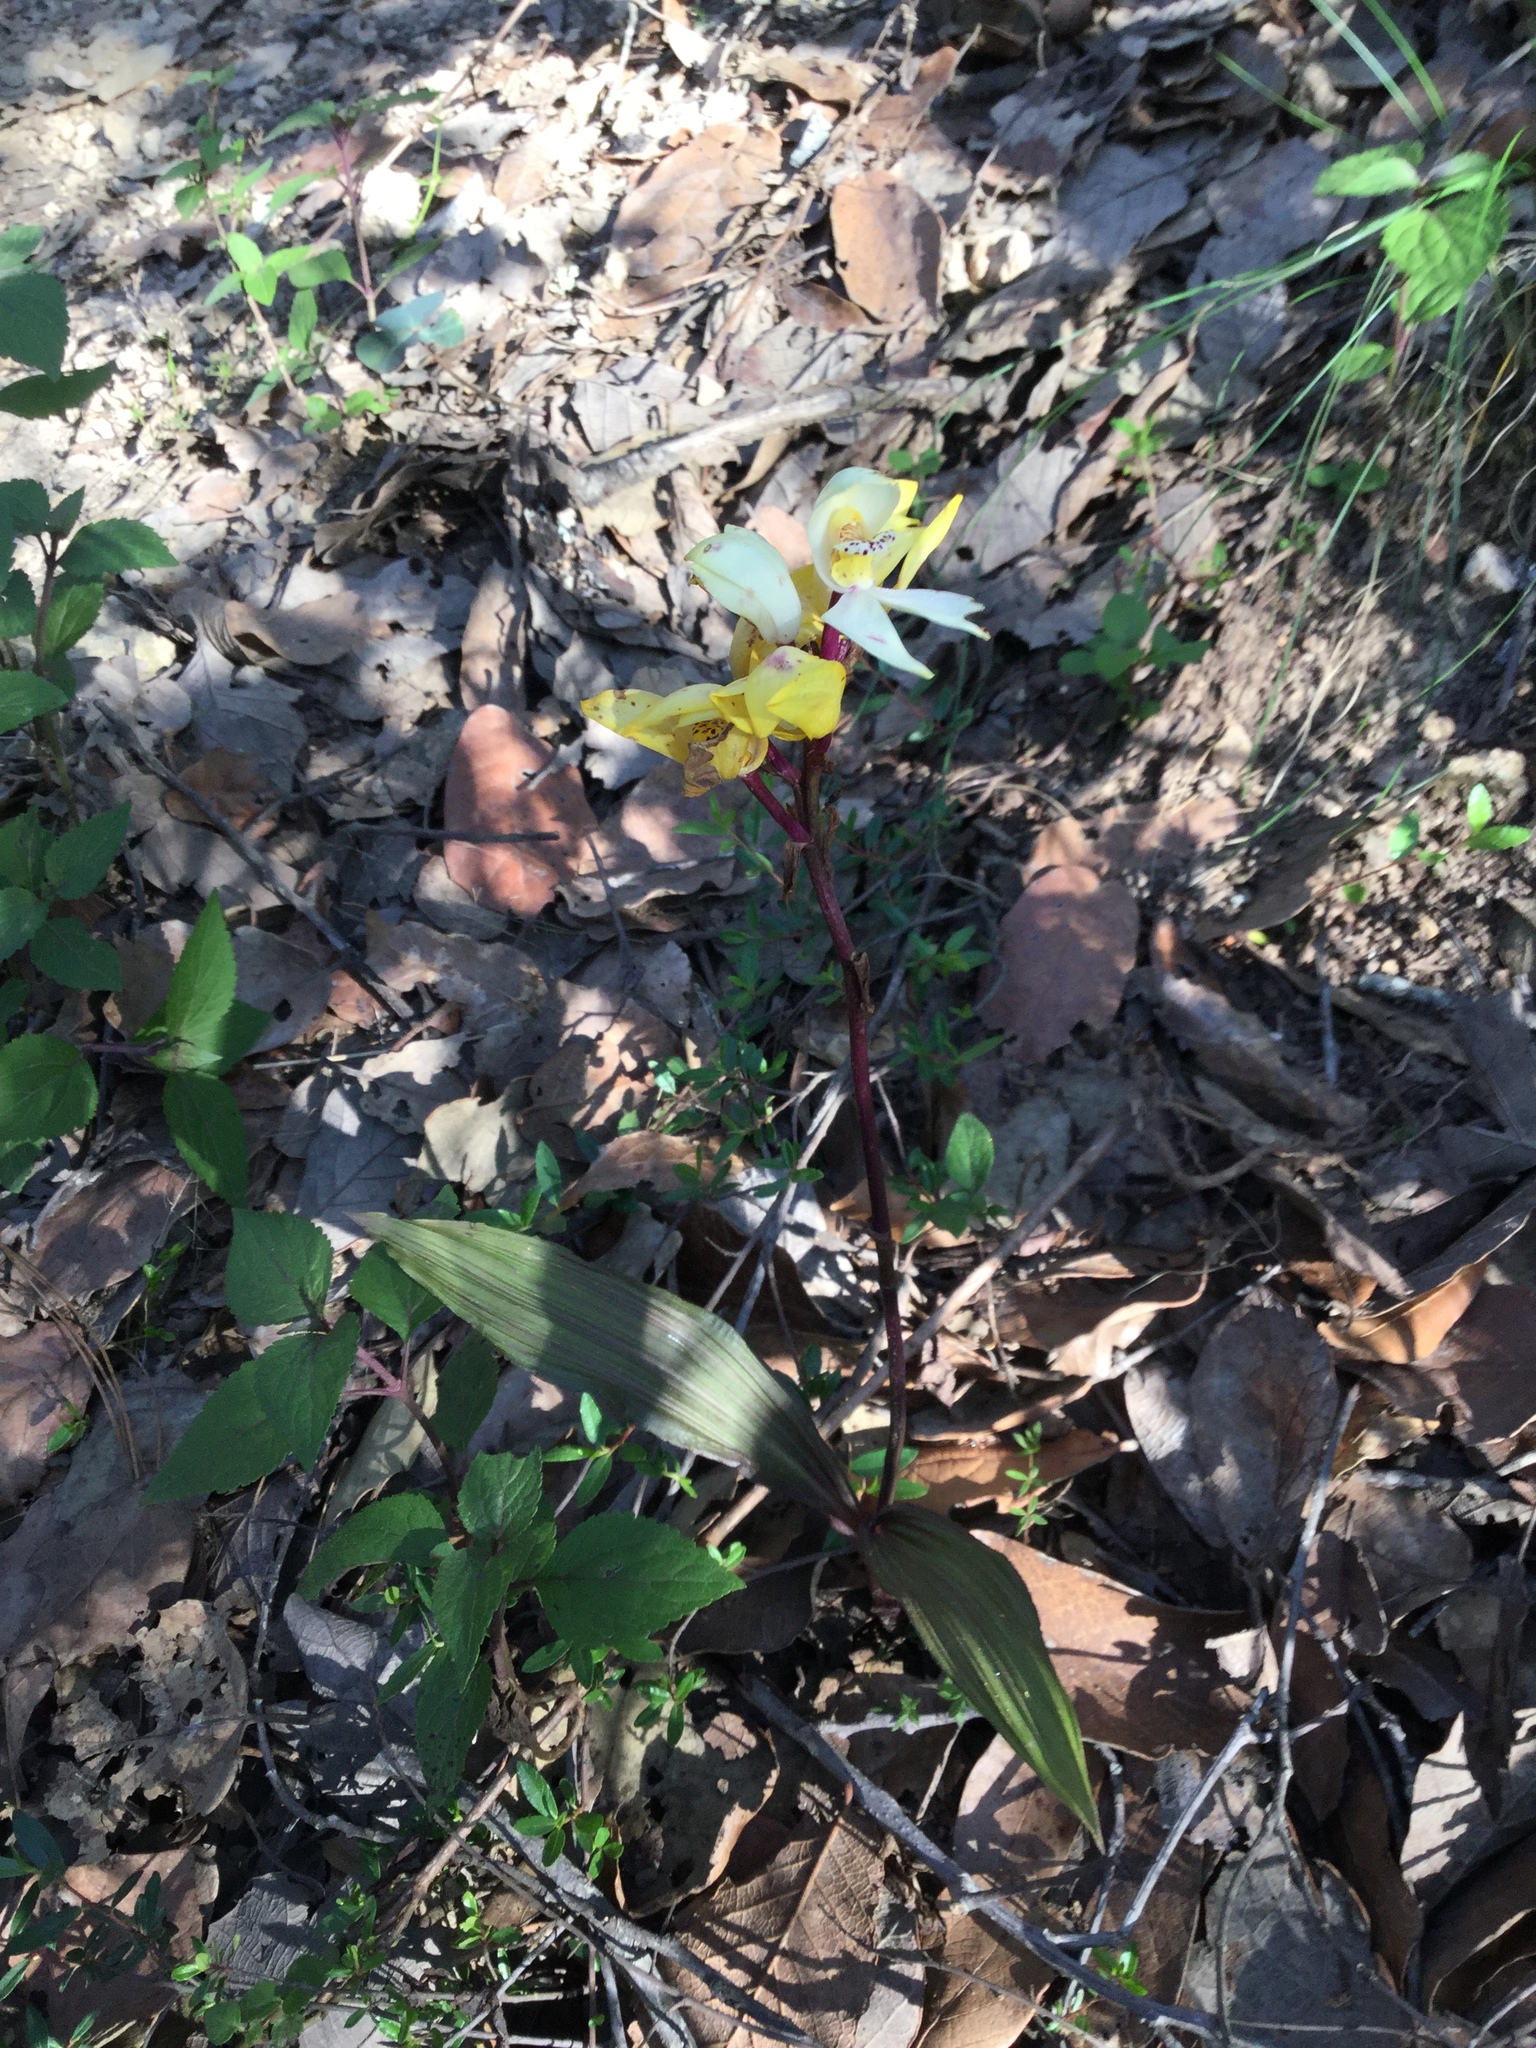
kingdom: Plantae
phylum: Tracheophyta
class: Liliopsida
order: Asparagales
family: Orchidaceae
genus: Govenia
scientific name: Govenia capitata
